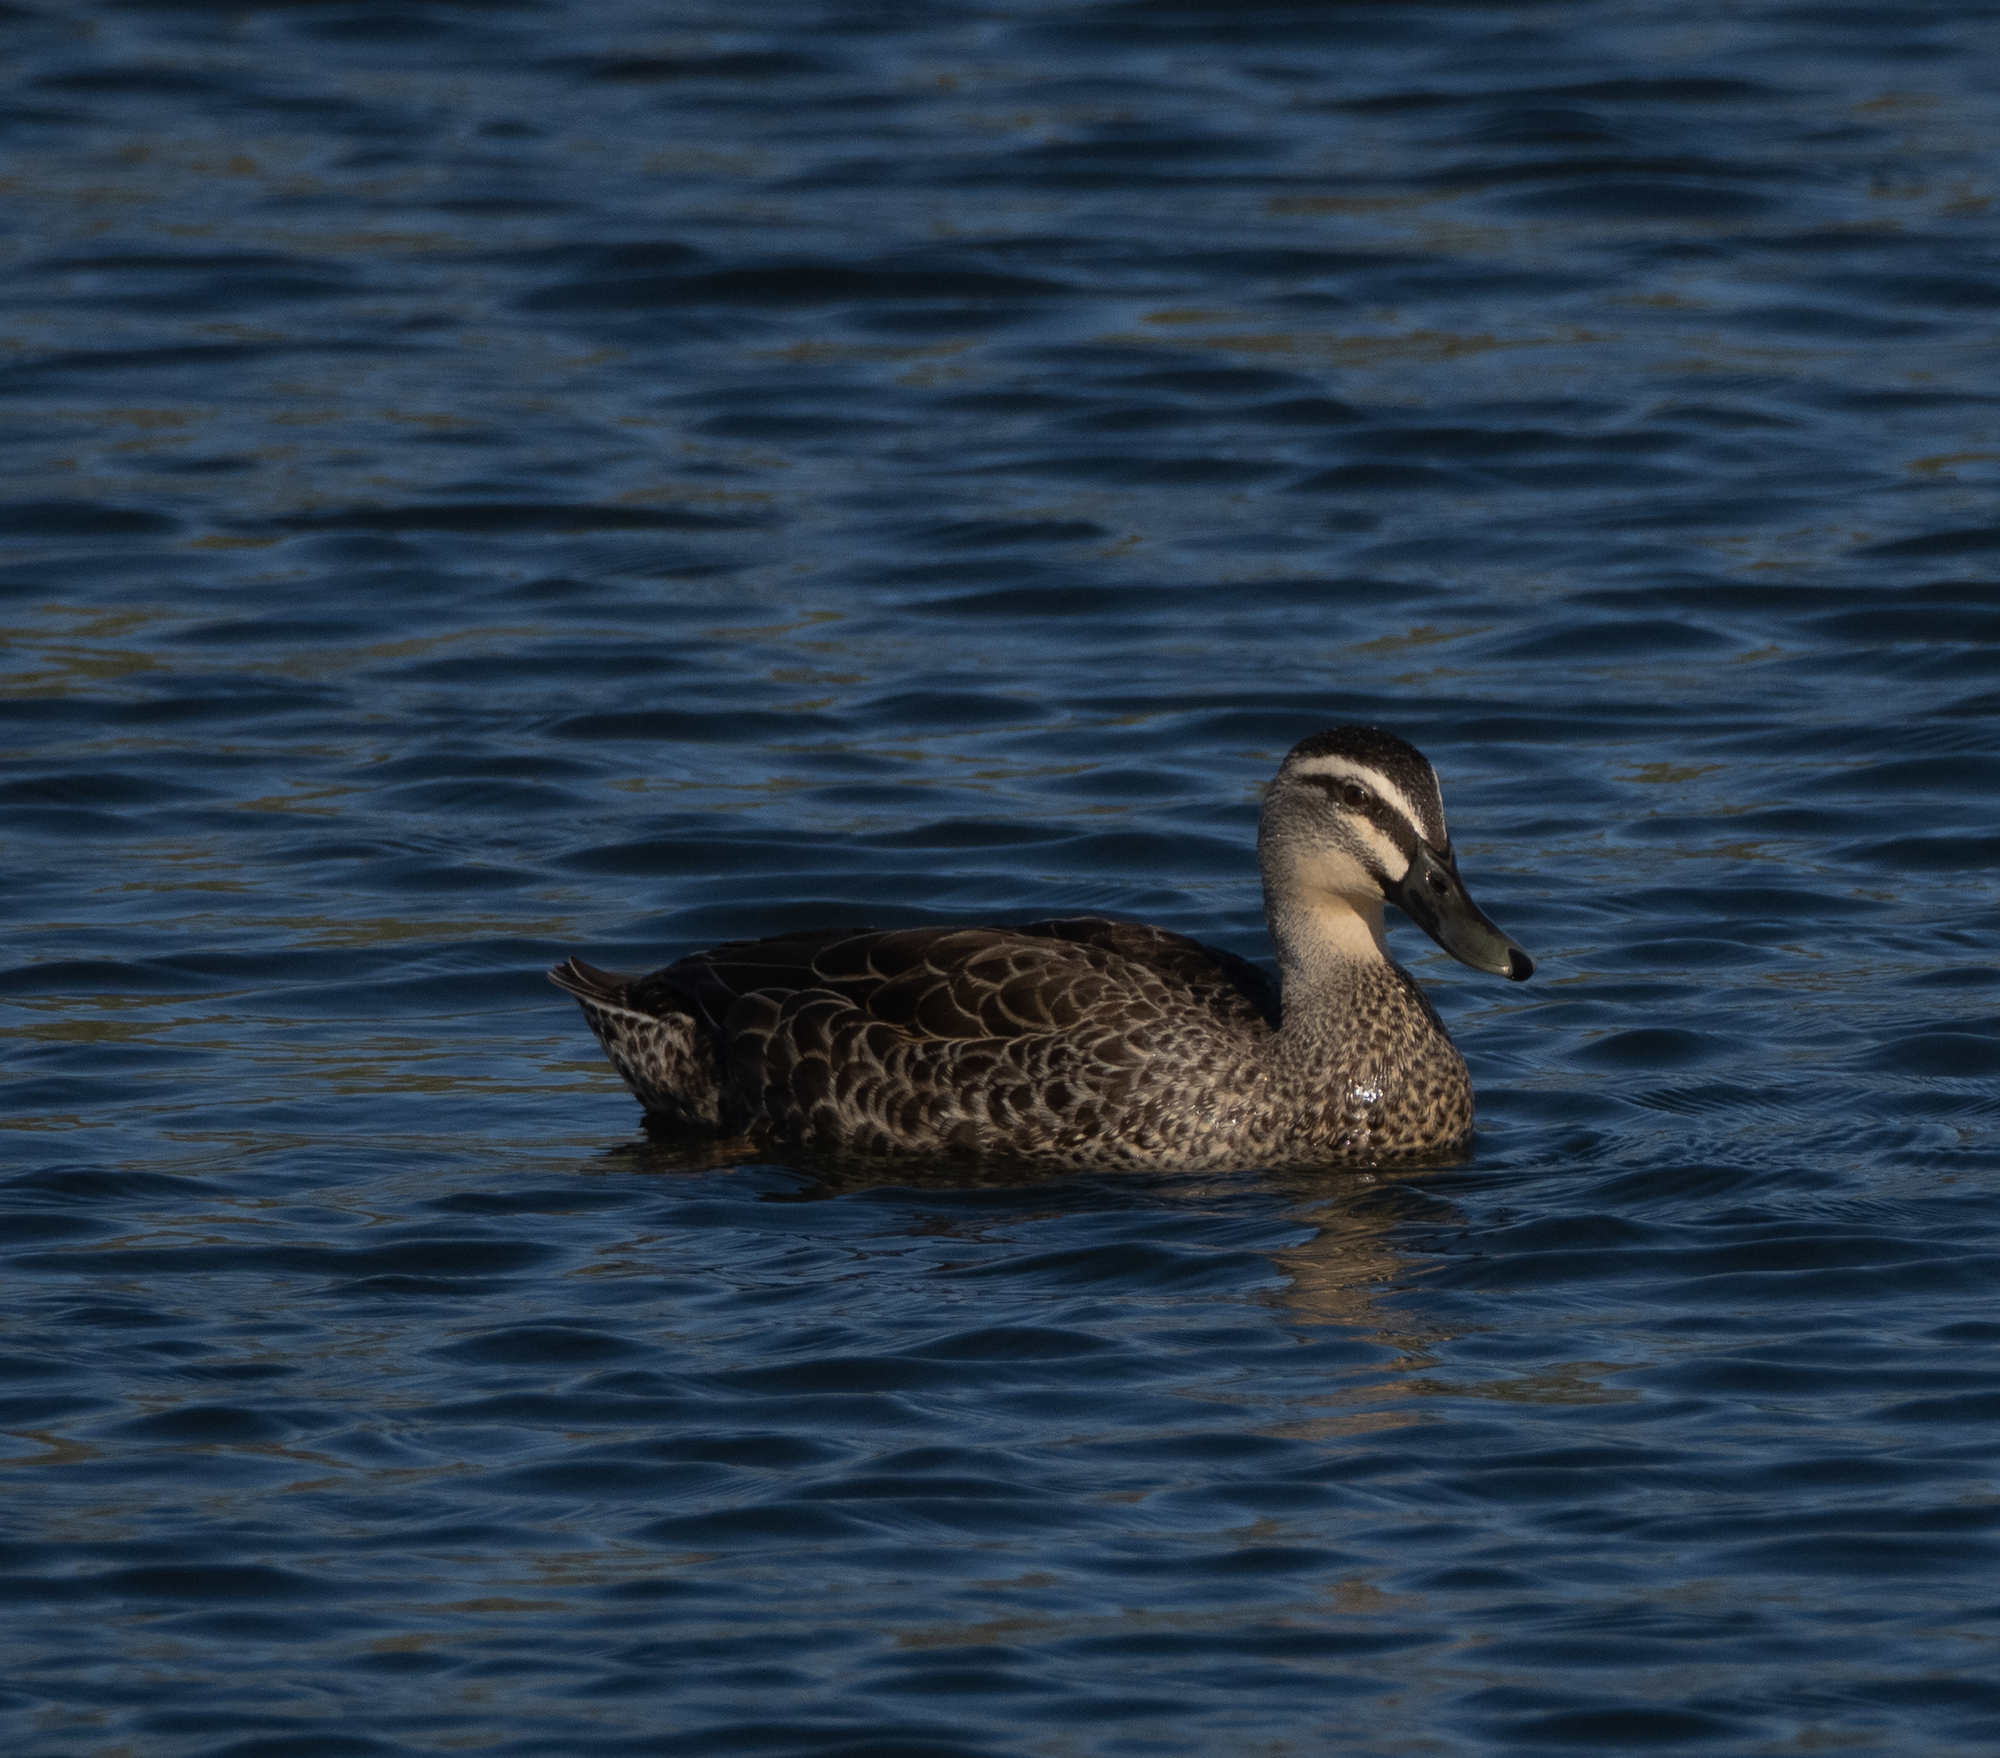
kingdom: Animalia
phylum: Chordata
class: Aves
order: Anseriformes
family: Anatidae
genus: Anas
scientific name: Anas
